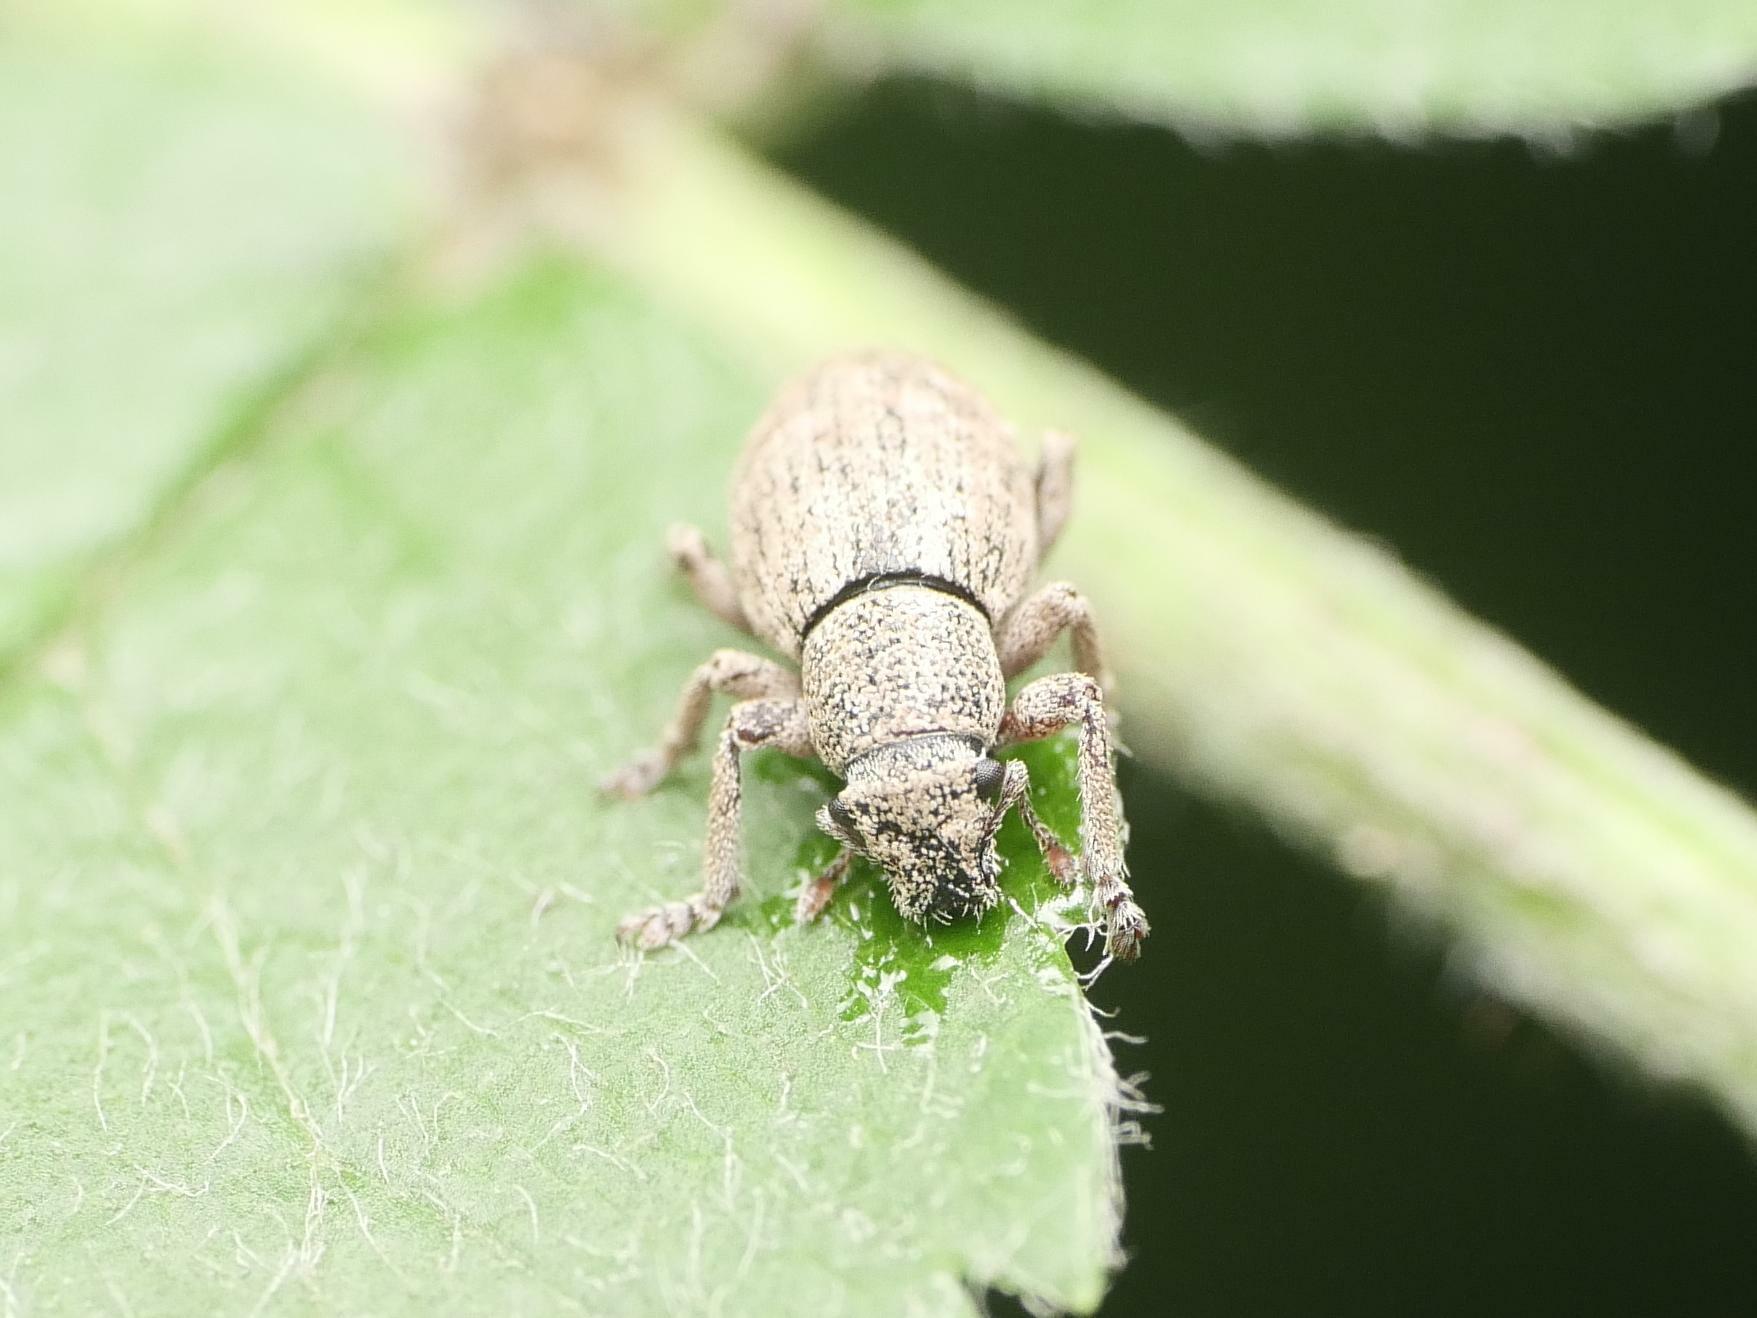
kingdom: Animalia
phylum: Arthropoda
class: Insecta
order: Coleoptera
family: Curculionidae
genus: Strophosoma
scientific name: Strophosoma capitatum
